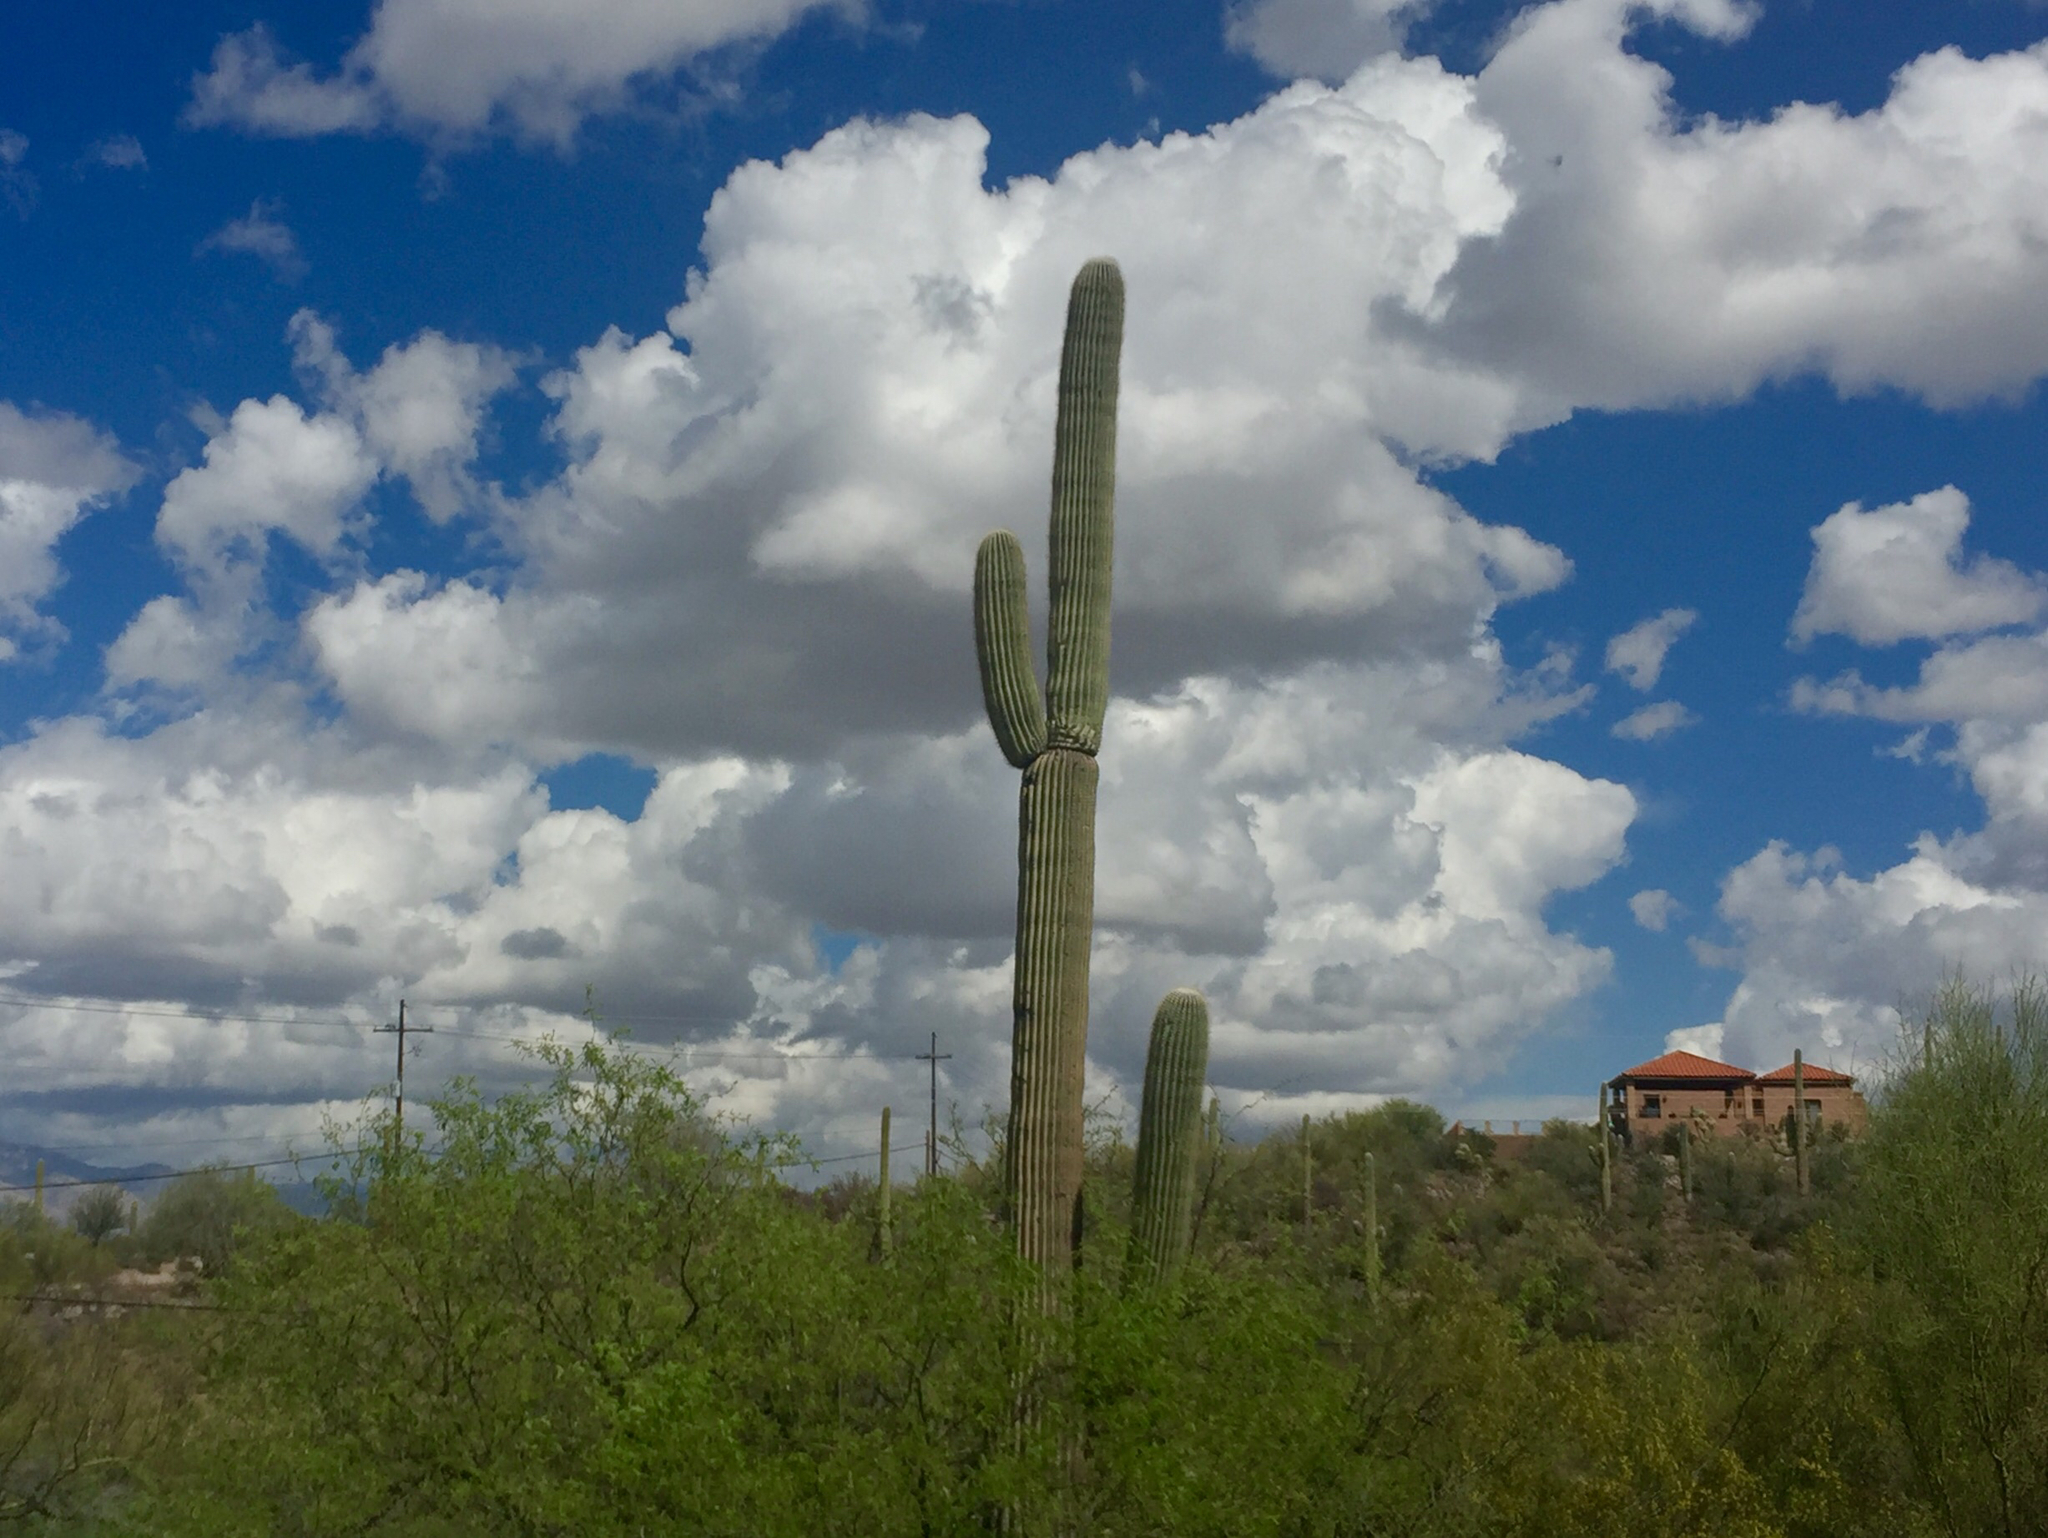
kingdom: Plantae
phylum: Tracheophyta
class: Magnoliopsida
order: Caryophyllales
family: Cactaceae
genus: Carnegiea
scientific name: Carnegiea gigantea
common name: Saguaro
